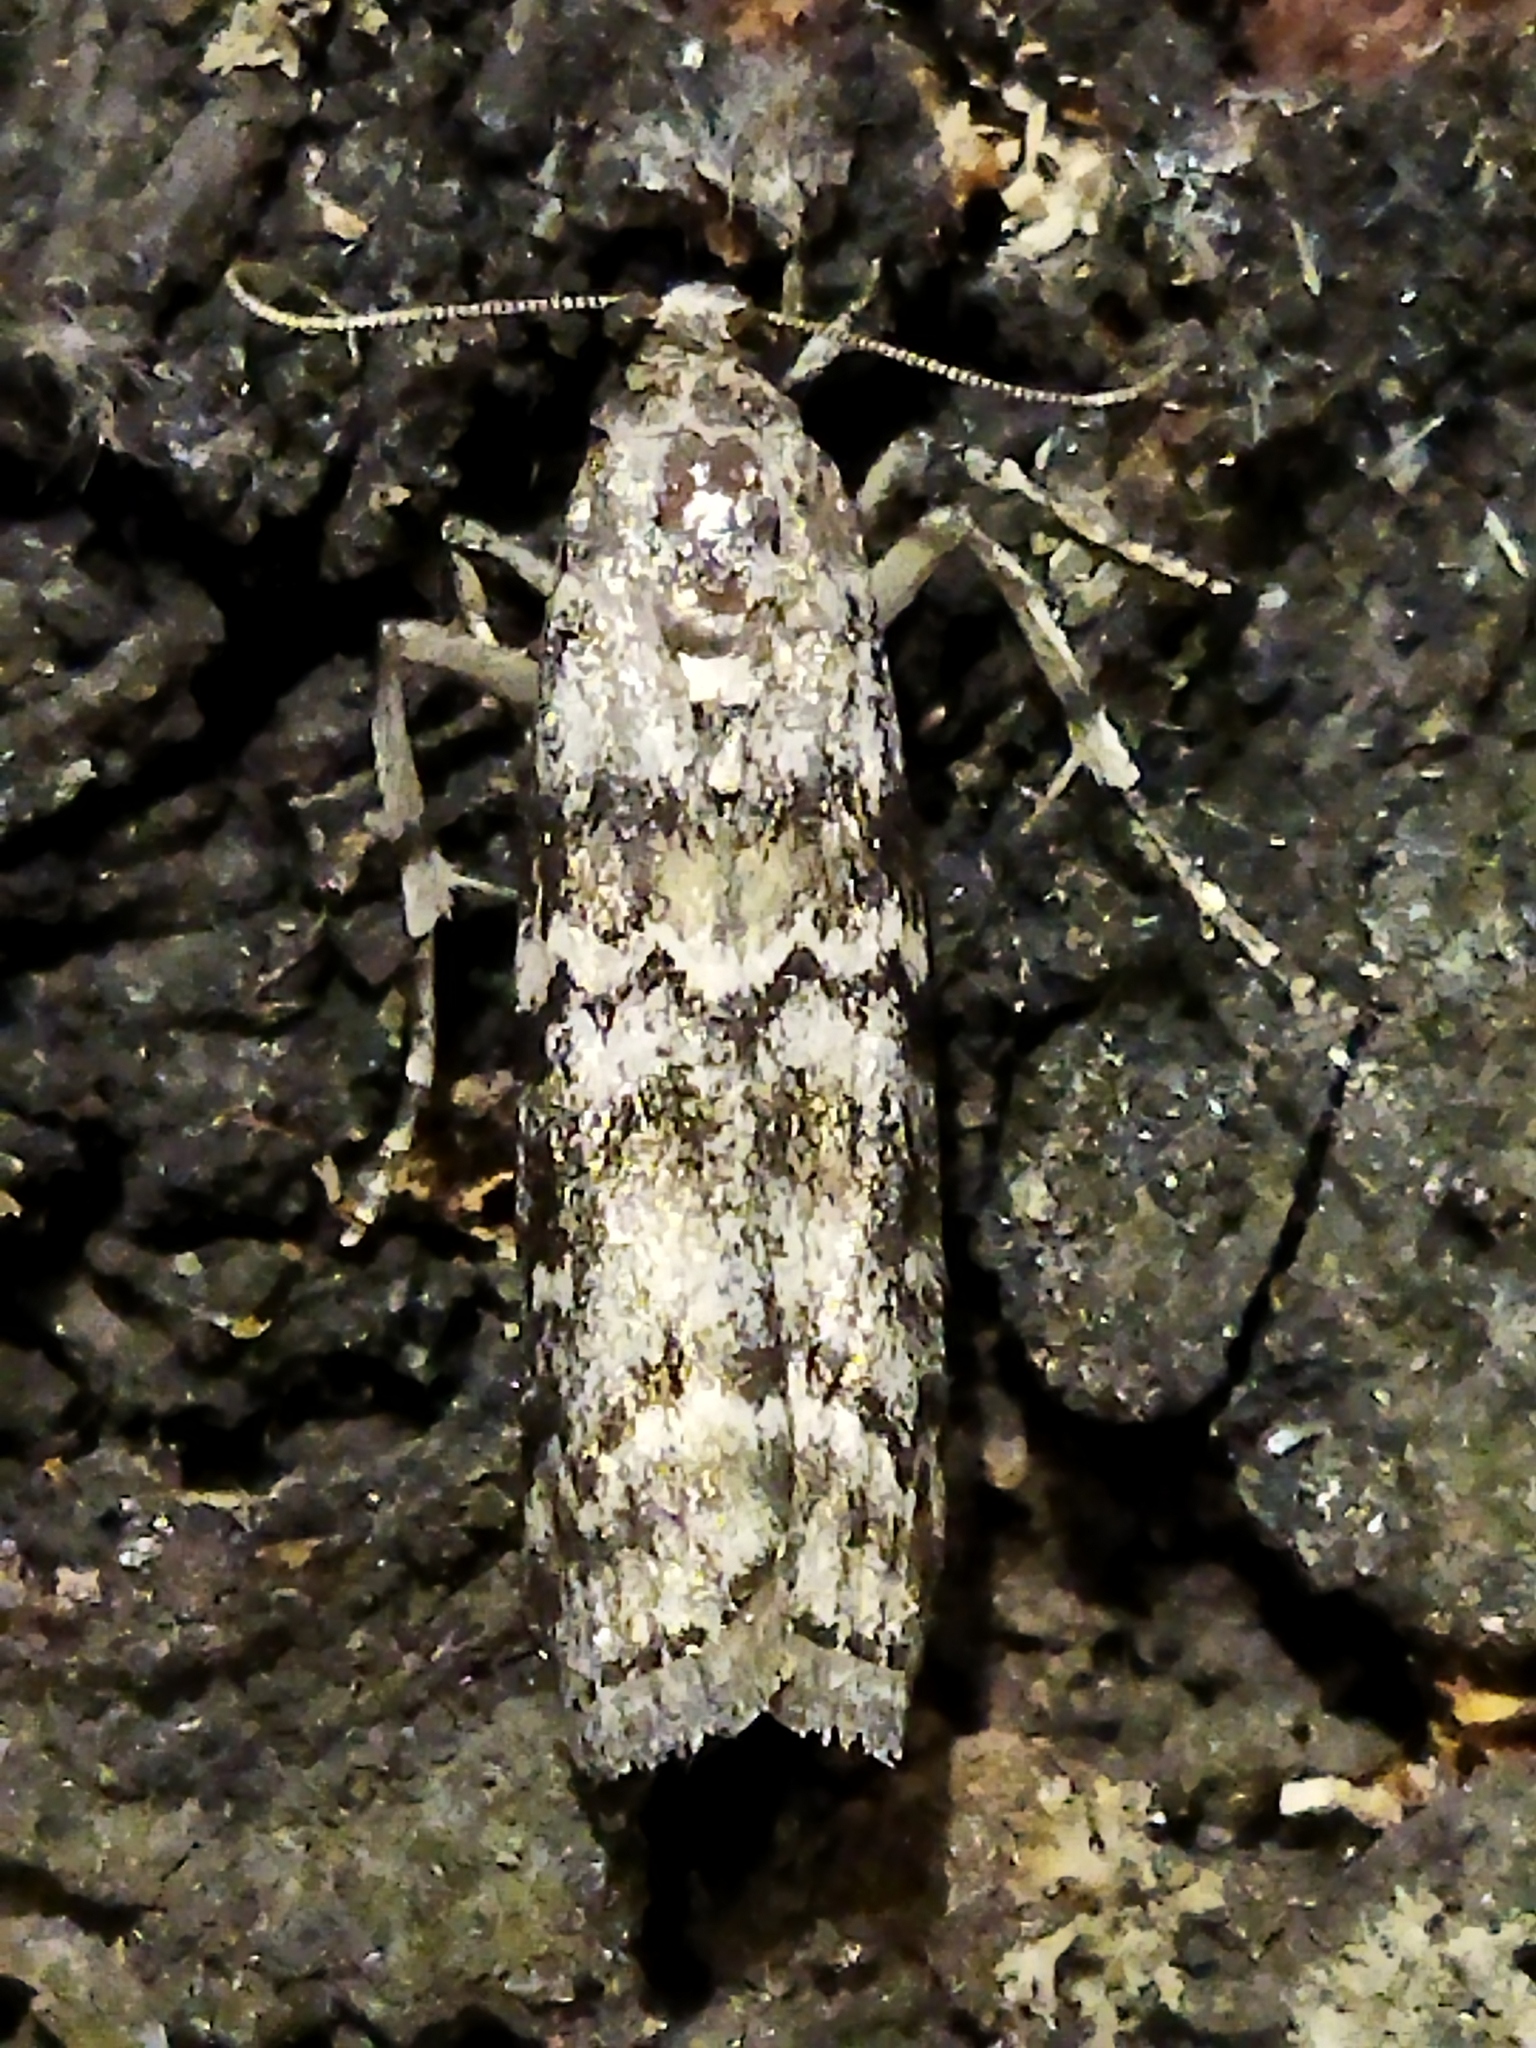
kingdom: Animalia
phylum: Arthropoda
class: Insecta
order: Lepidoptera
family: Pyralidae
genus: Dioryctria
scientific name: Dioryctria abietella
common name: Dark pine knot-horn
